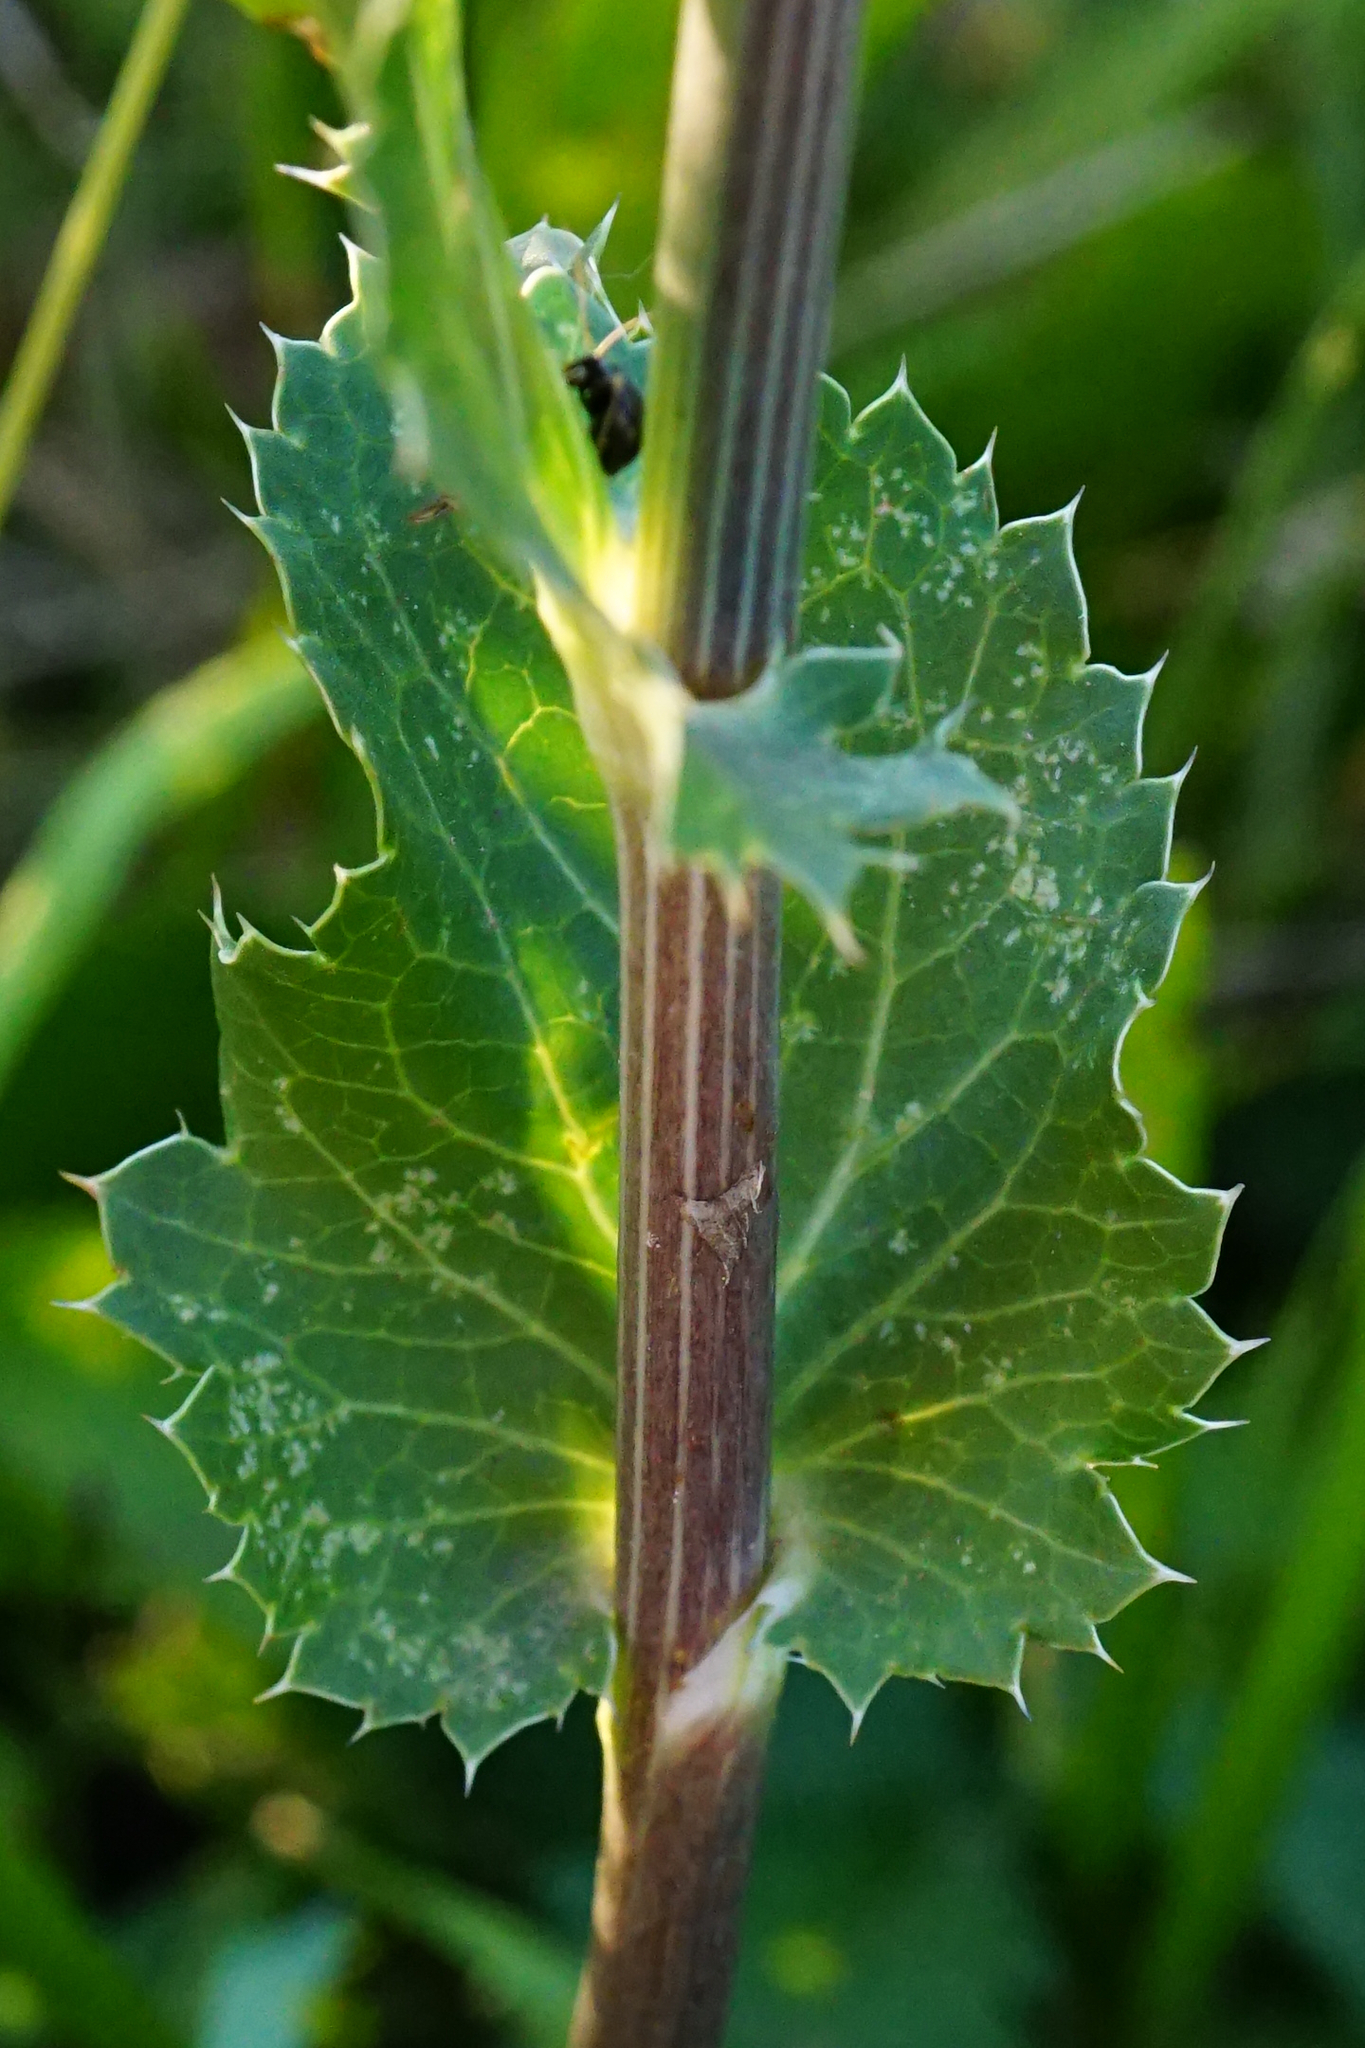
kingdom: Plantae
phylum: Tracheophyta
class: Magnoliopsida
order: Apiales
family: Apiaceae
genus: Eryngium
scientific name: Eryngium planum
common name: Blue eryngo
